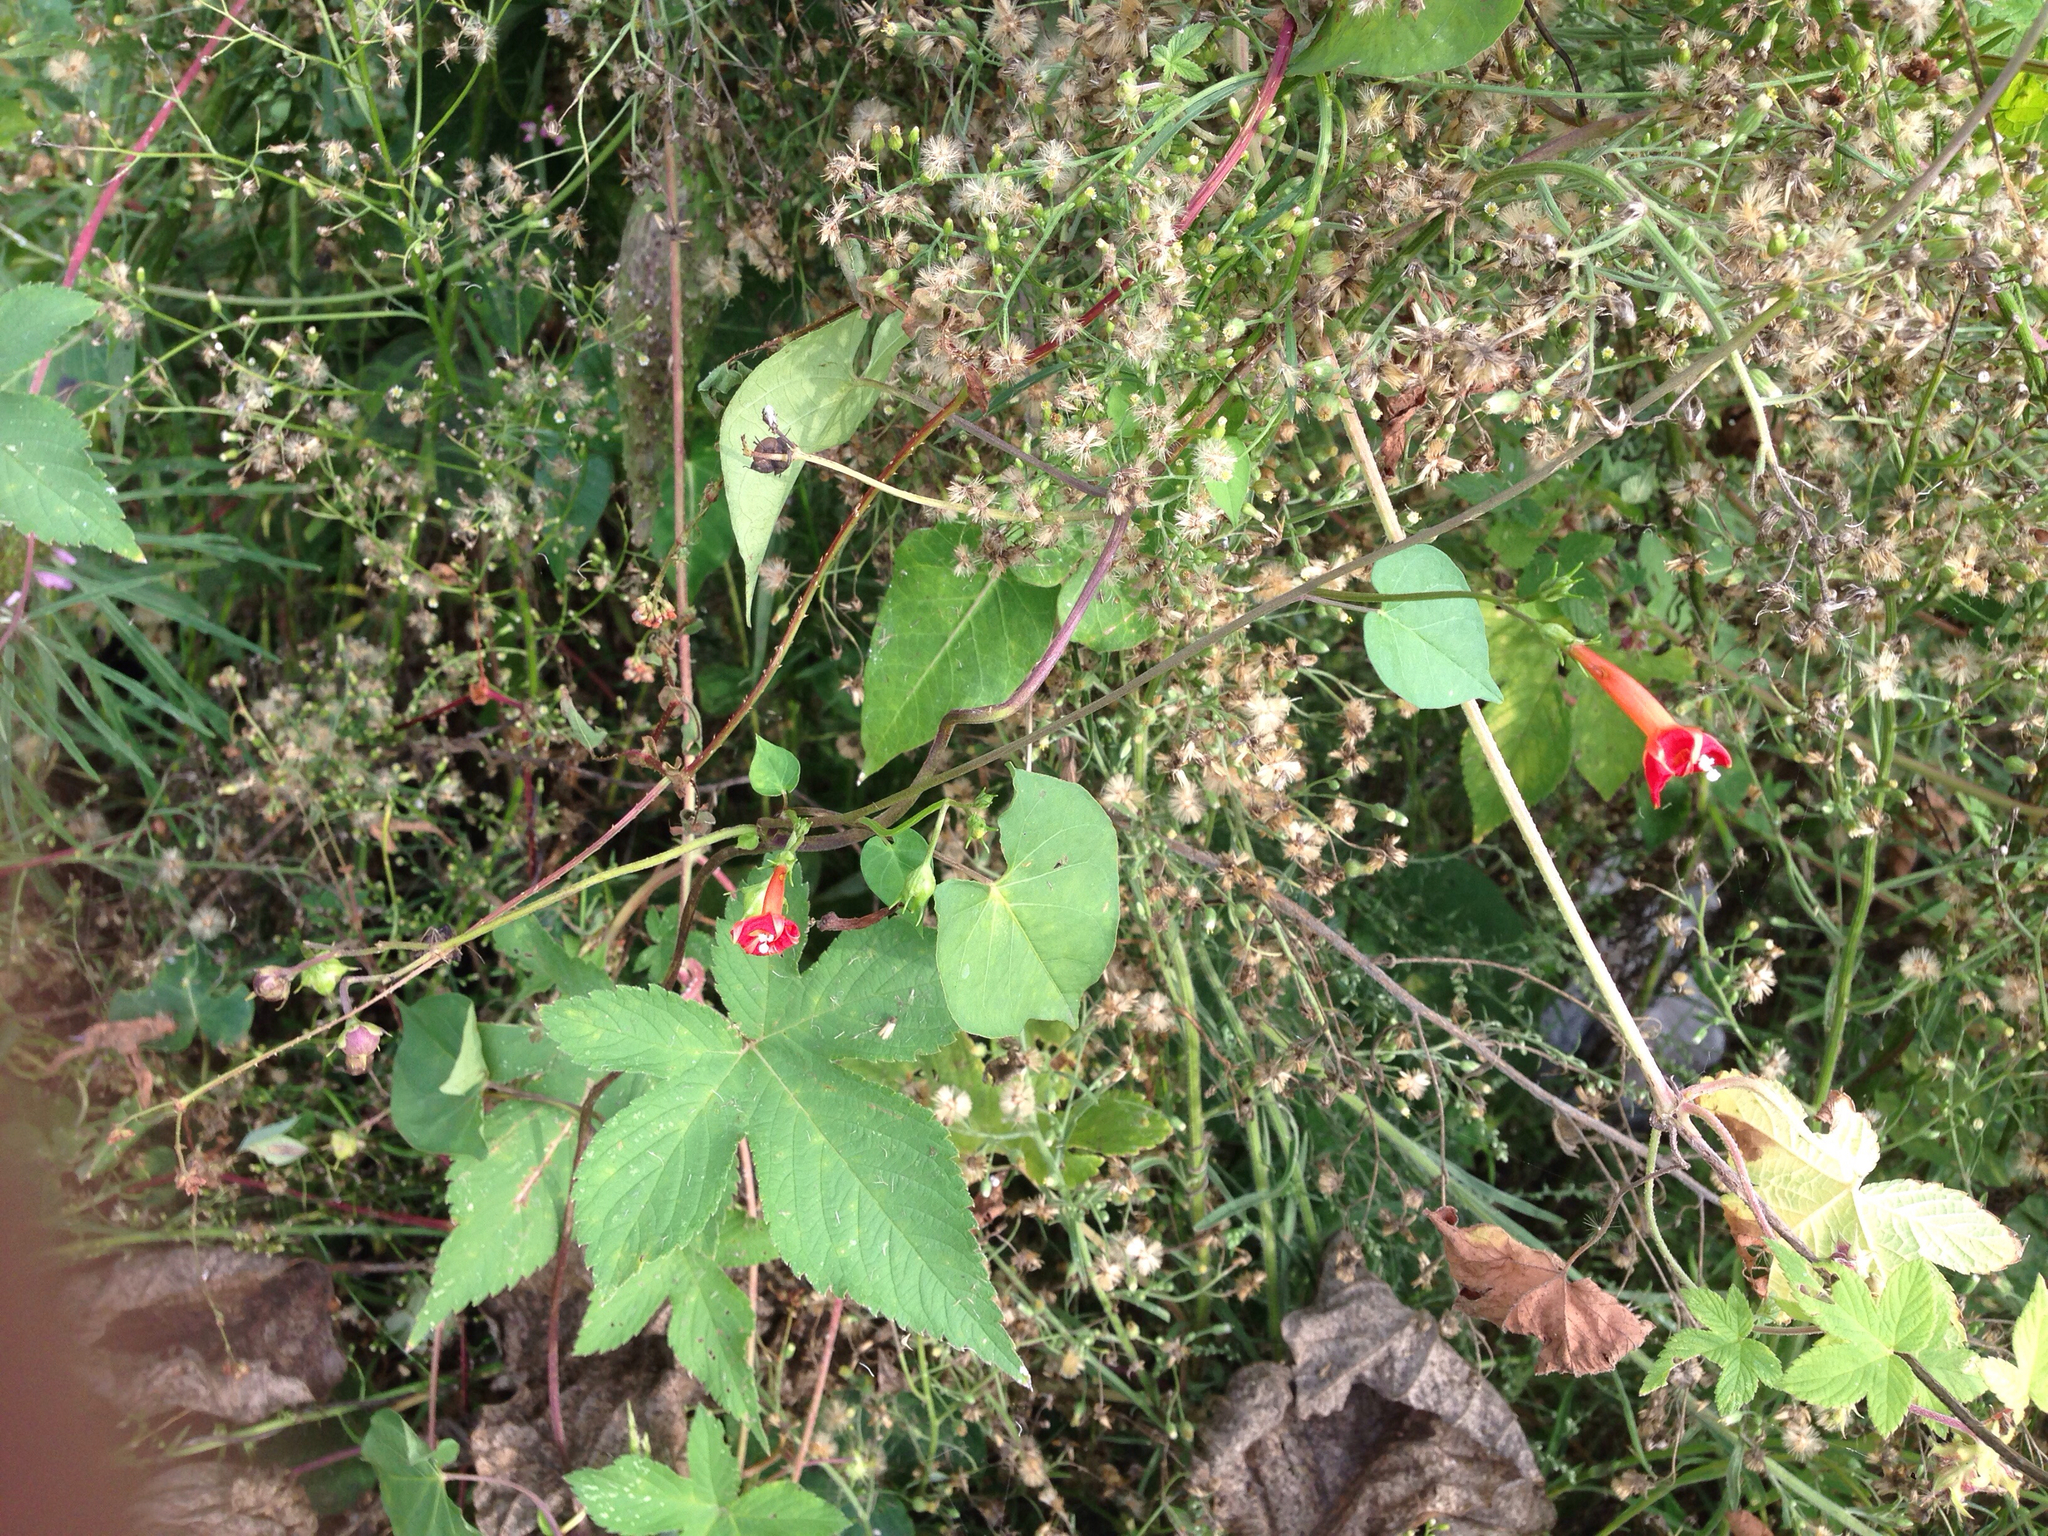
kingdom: Plantae
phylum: Tracheophyta
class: Magnoliopsida
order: Solanales
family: Convolvulaceae
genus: Ipomoea
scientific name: Ipomoea coccinea
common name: Red morning-glory
